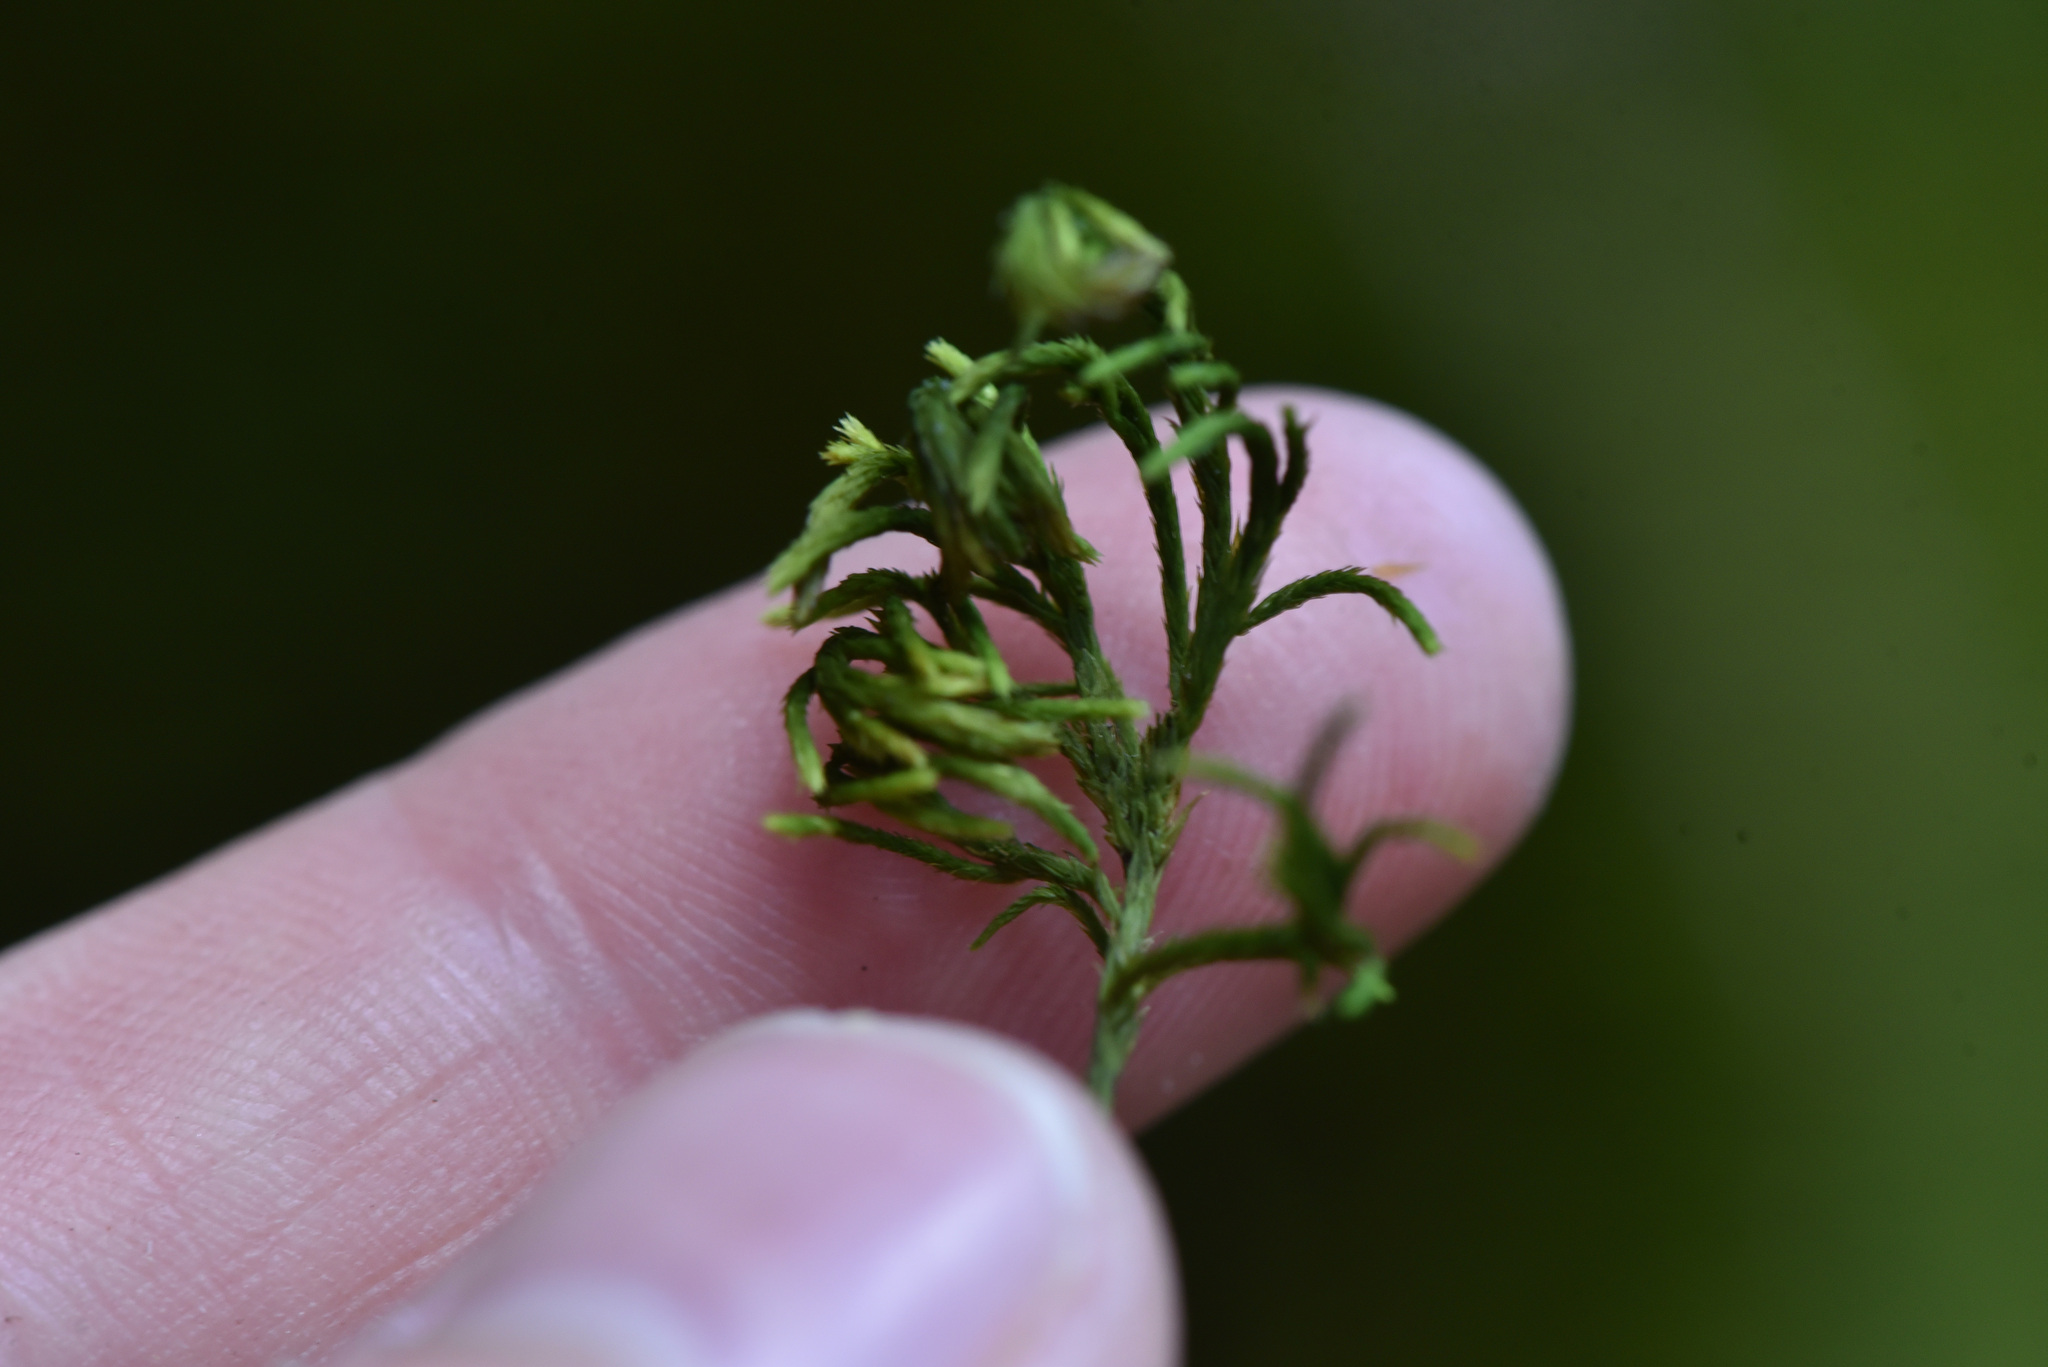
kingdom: Plantae
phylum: Bryophyta
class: Bryopsida
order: Hypnales
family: Cryphaeaceae
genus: Dendroalsia
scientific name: Dendroalsia abietina
